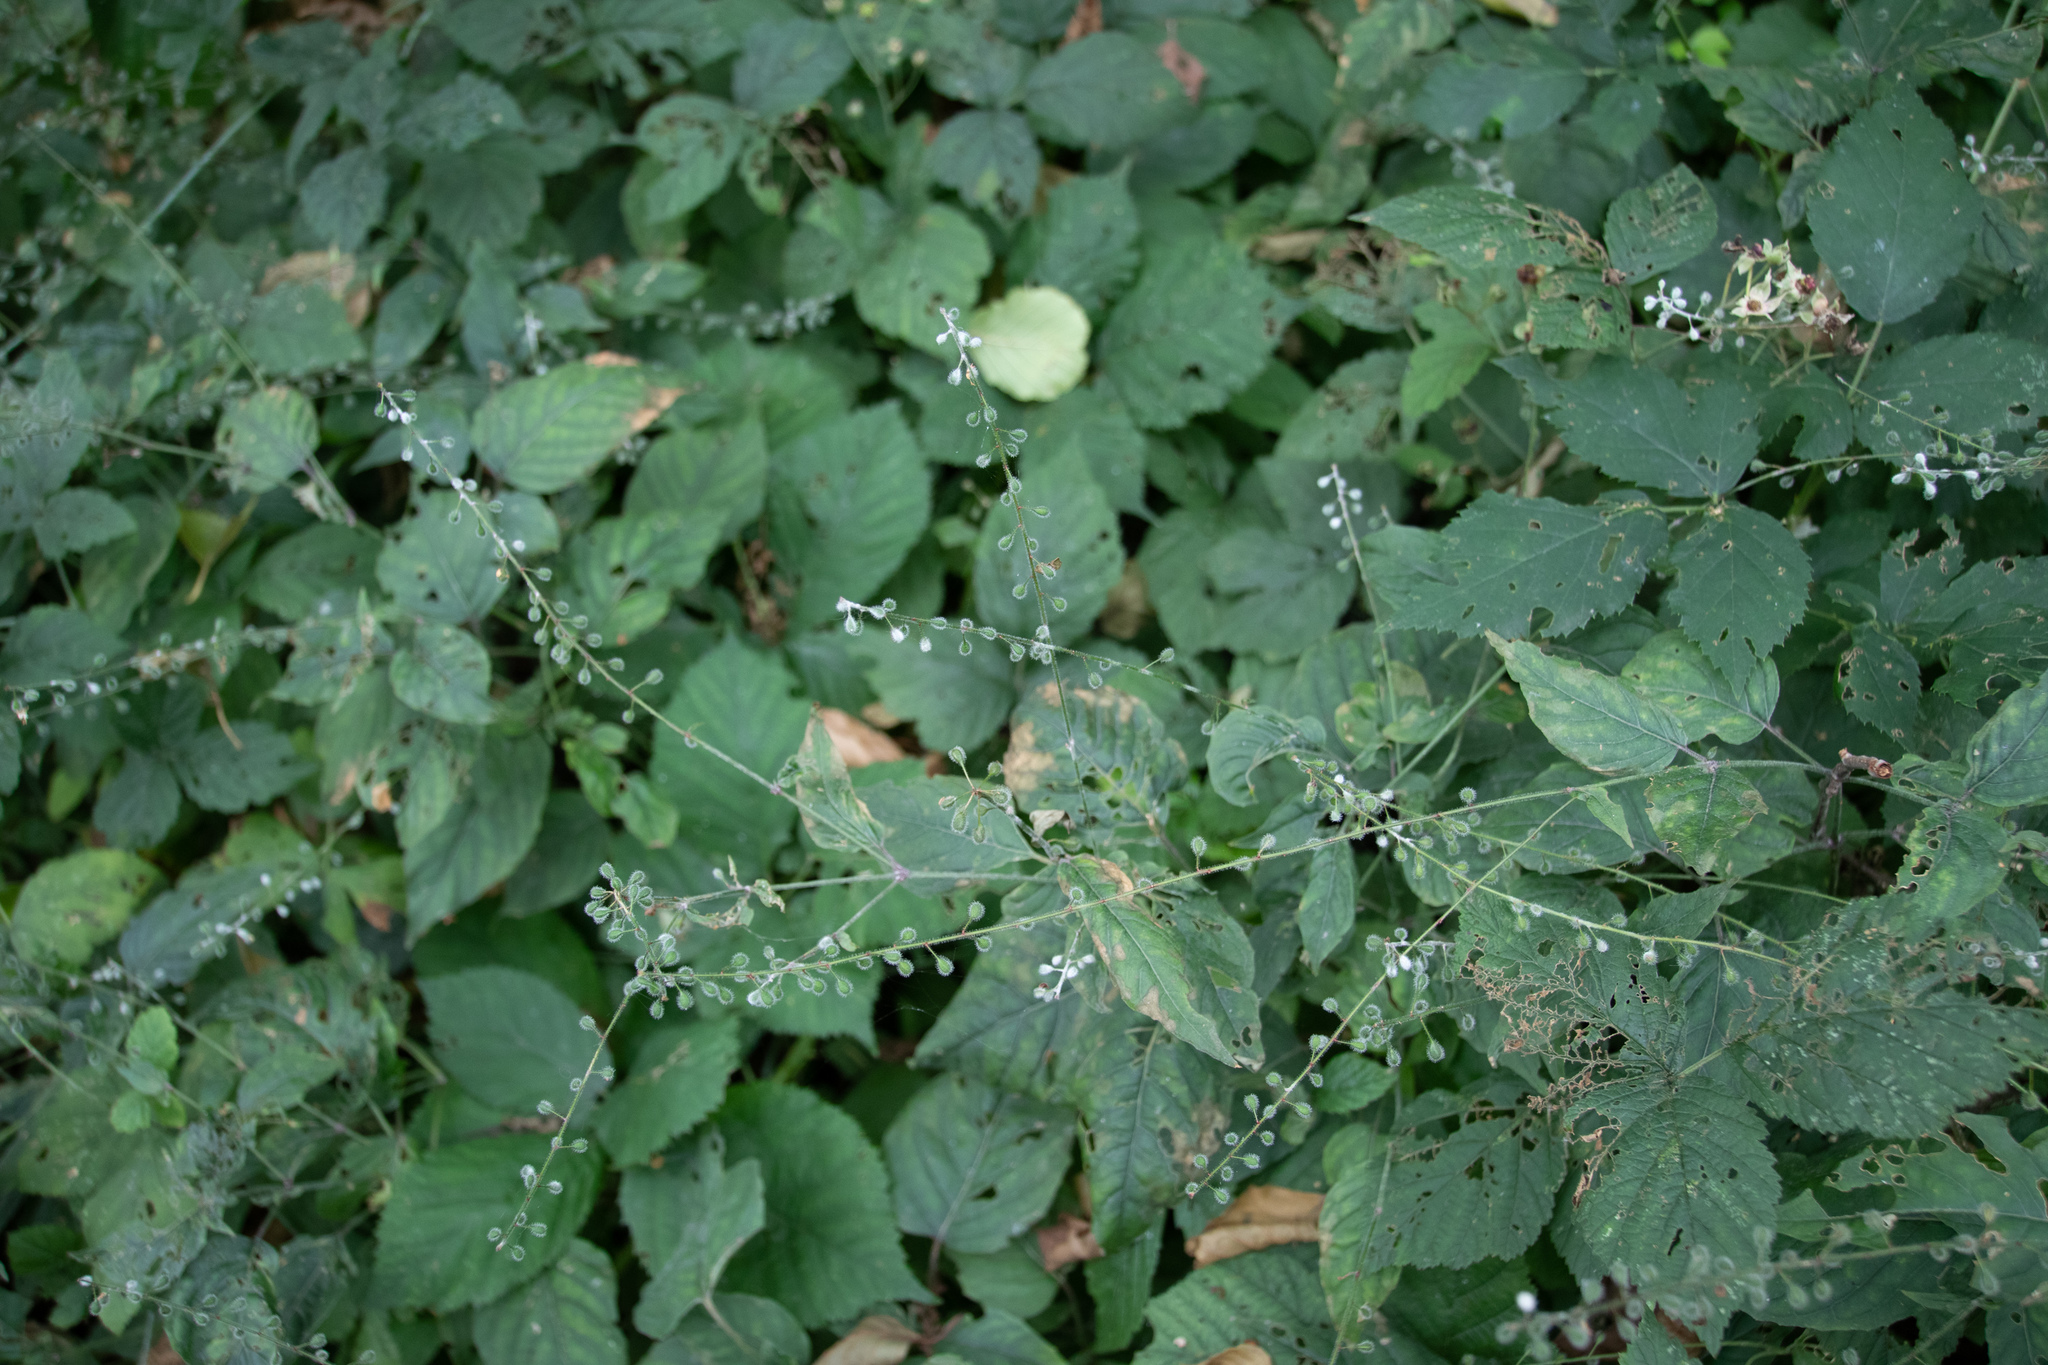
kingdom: Plantae
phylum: Tracheophyta
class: Magnoliopsida
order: Myrtales
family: Onagraceae
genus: Circaea
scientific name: Circaea lutetiana
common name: Enchanter's-nightshade
